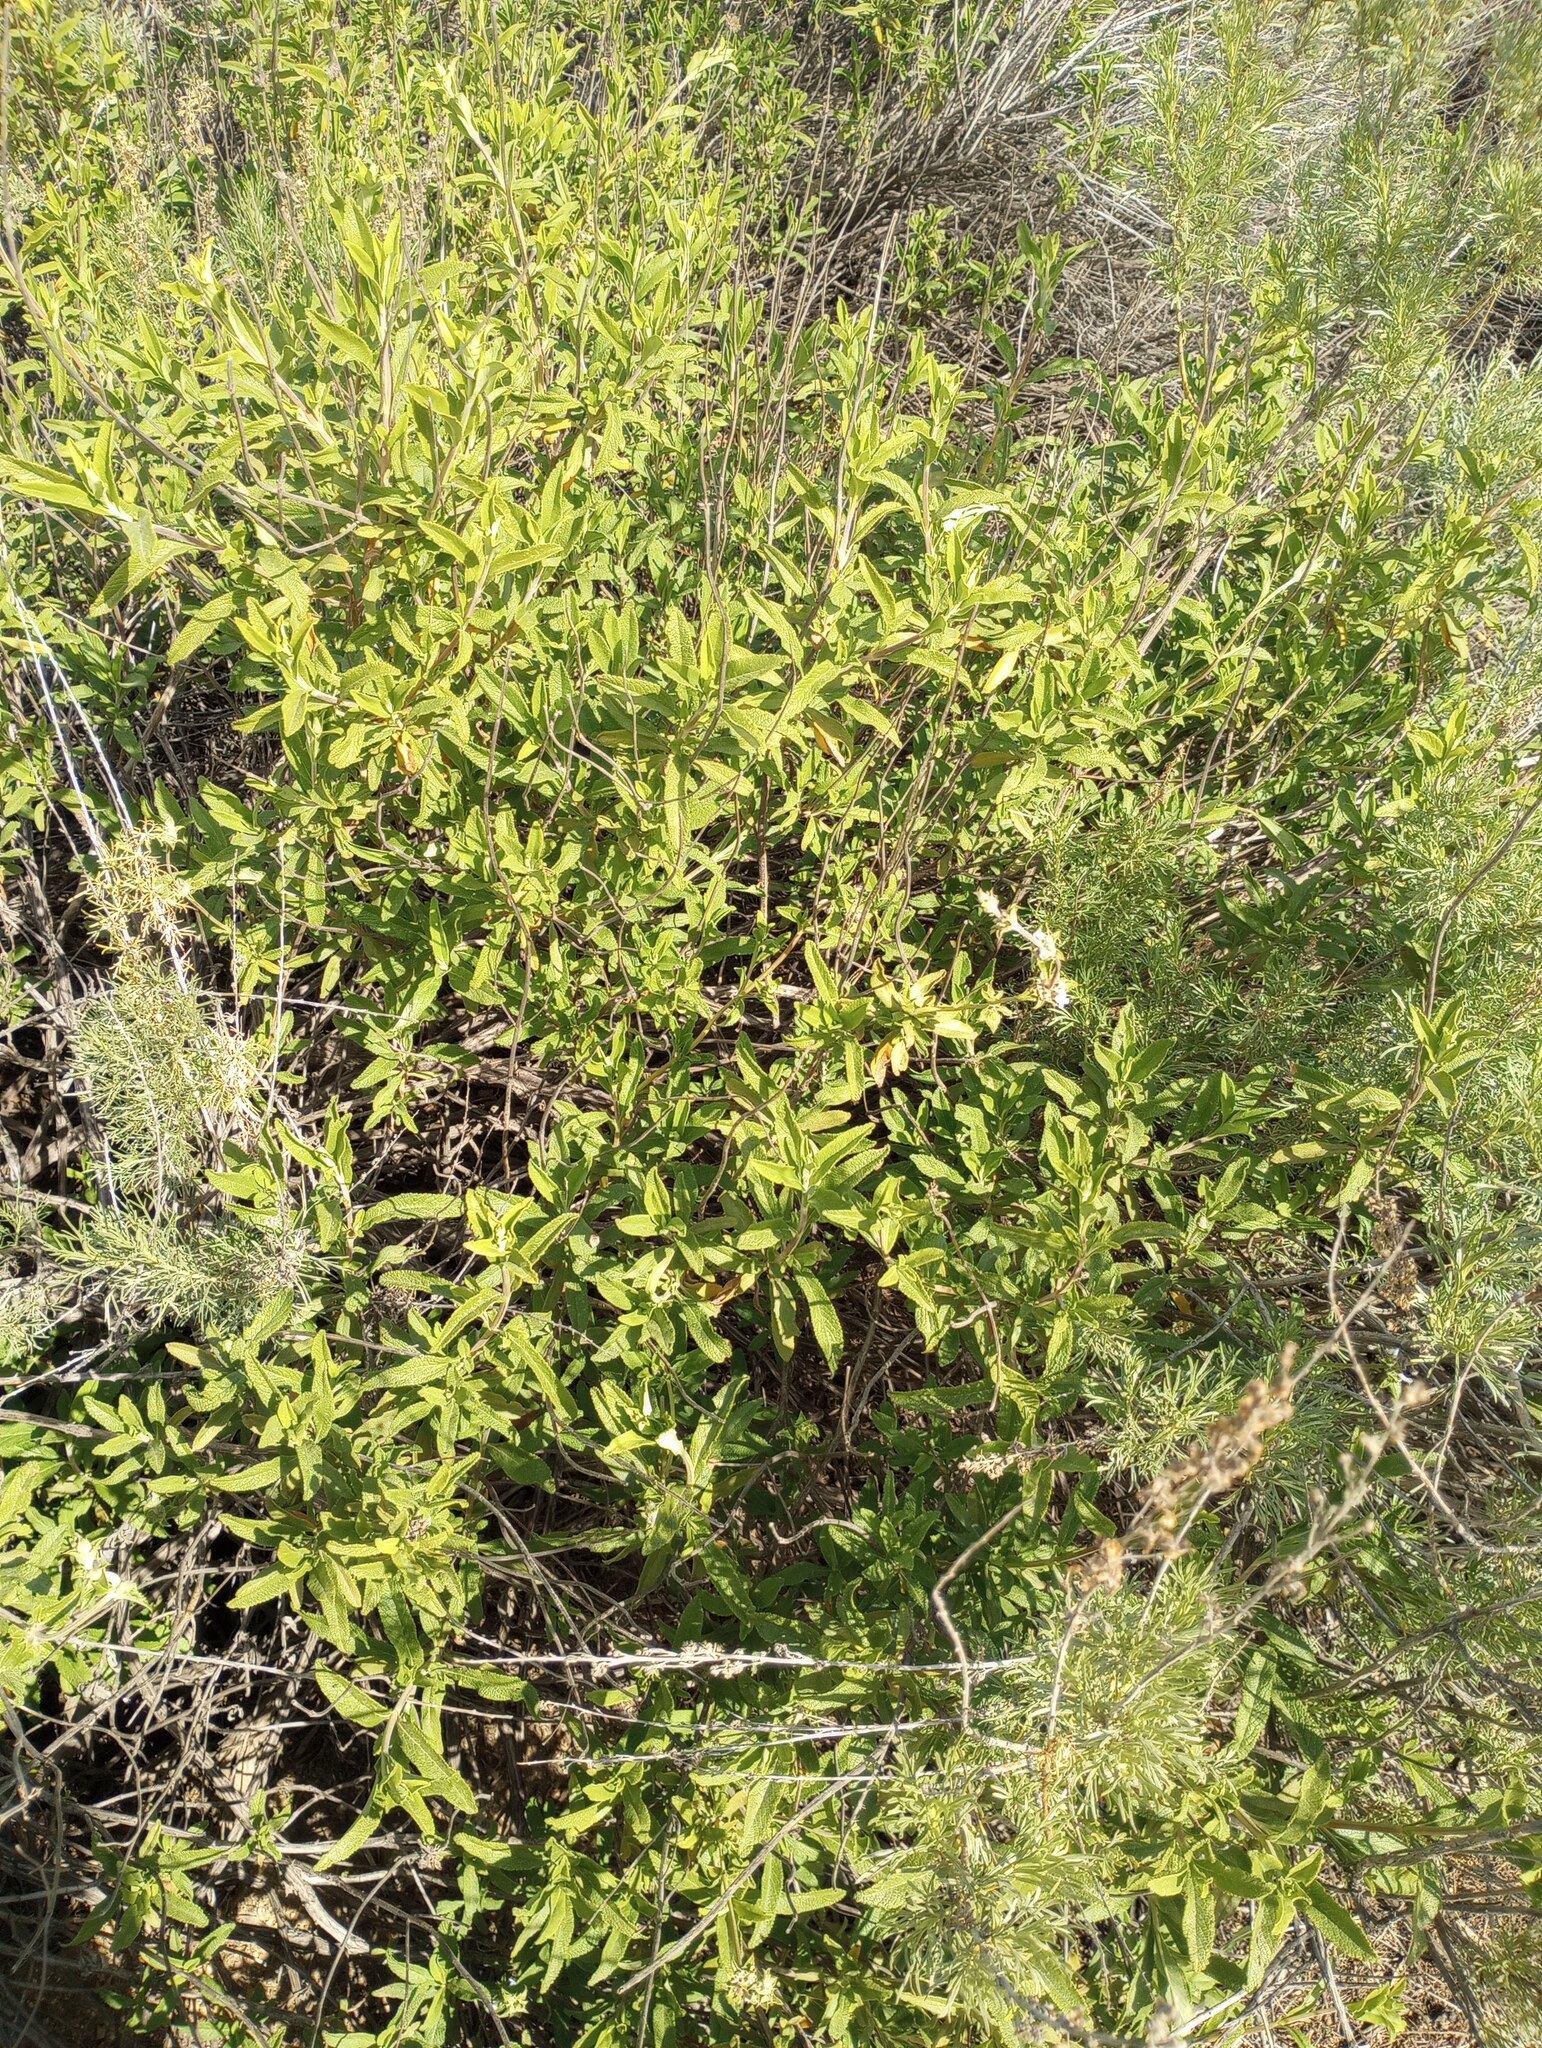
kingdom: Plantae
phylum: Tracheophyta
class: Magnoliopsida
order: Lamiales
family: Lamiaceae
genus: Salvia
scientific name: Salvia mellifera
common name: Black sage
